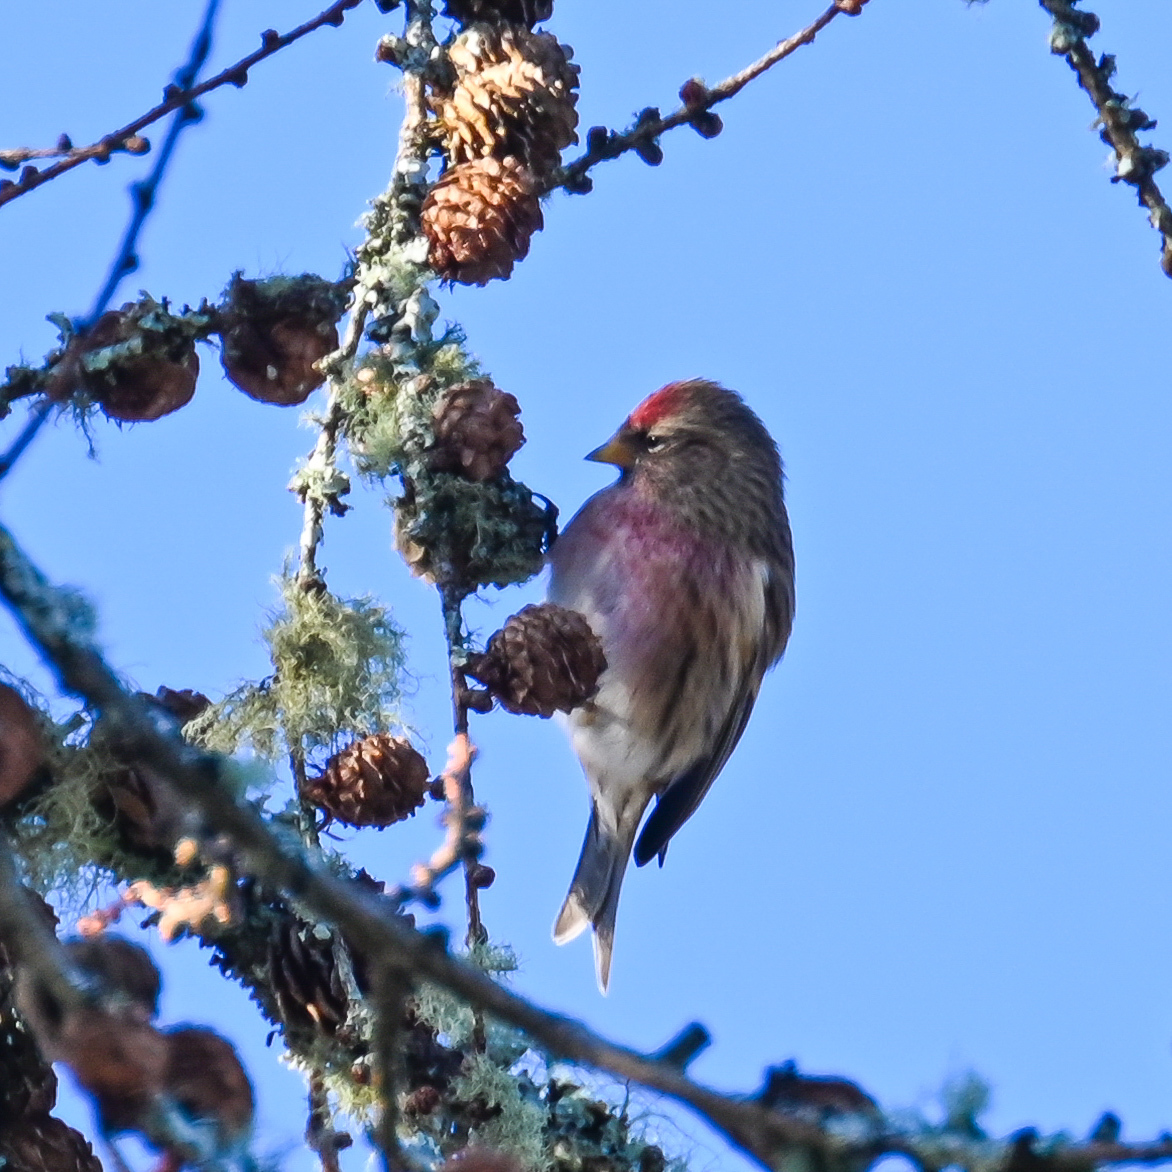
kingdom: Animalia
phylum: Chordata
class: Aves
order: Passeriformes
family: Fringillidae
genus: Acanthis
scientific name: Acanthis flammea
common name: Common redpoll
